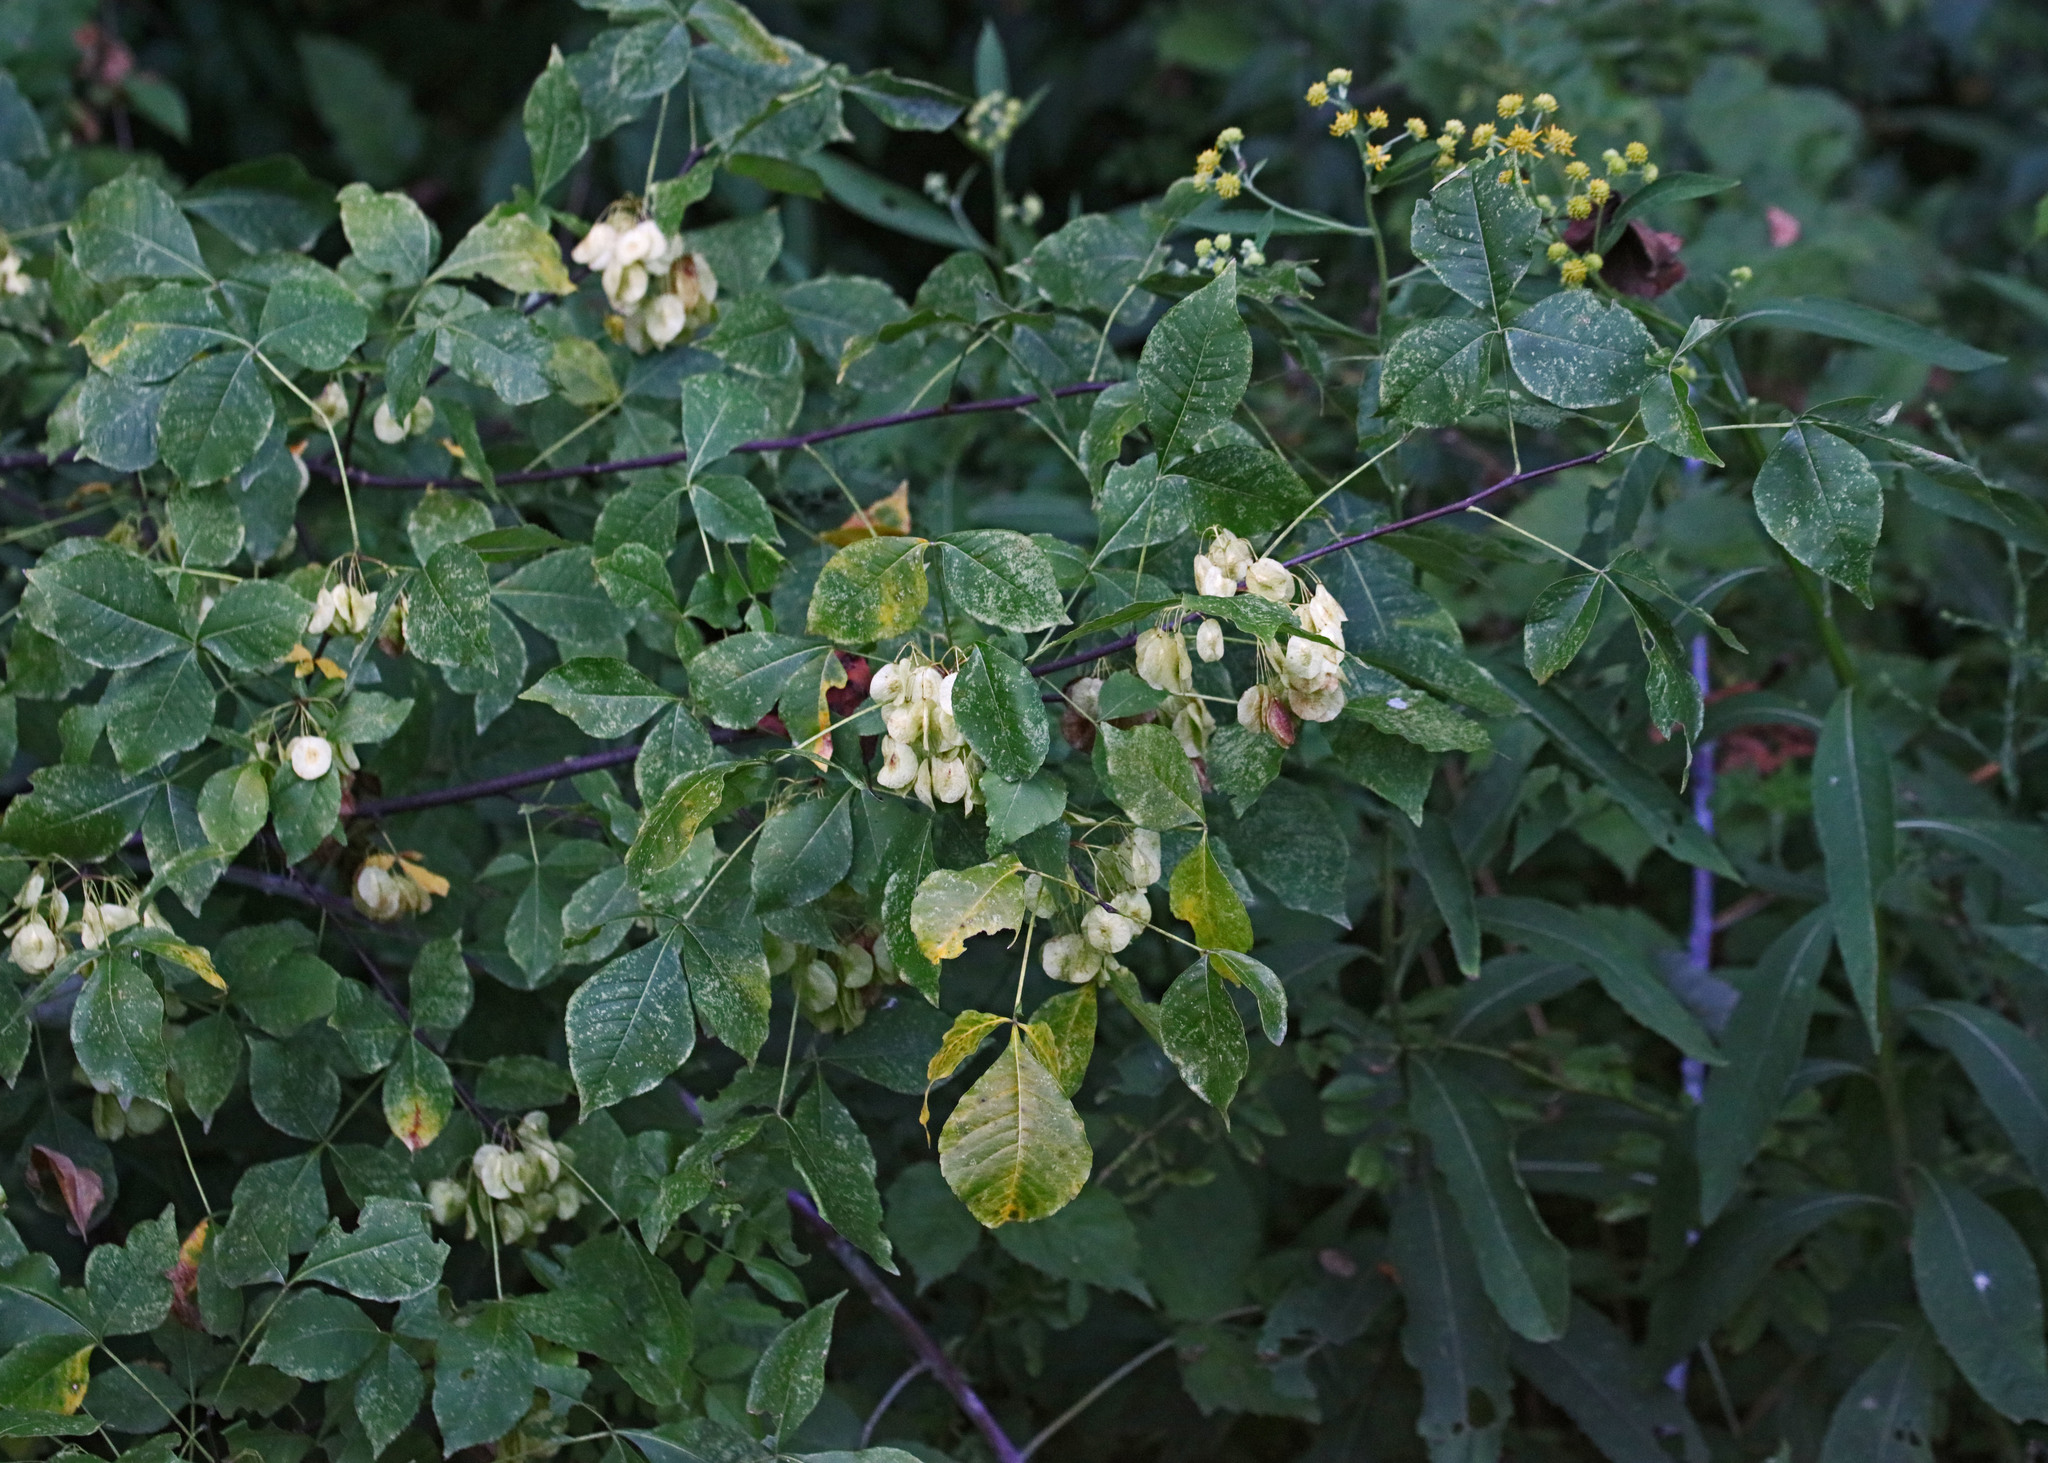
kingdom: Plantae
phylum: Tracheophyta
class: Magnoliopsida
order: Sapindales
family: Rutaceae
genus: Ptelea
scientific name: Ptelea trifoliata
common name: Common hop-tree
